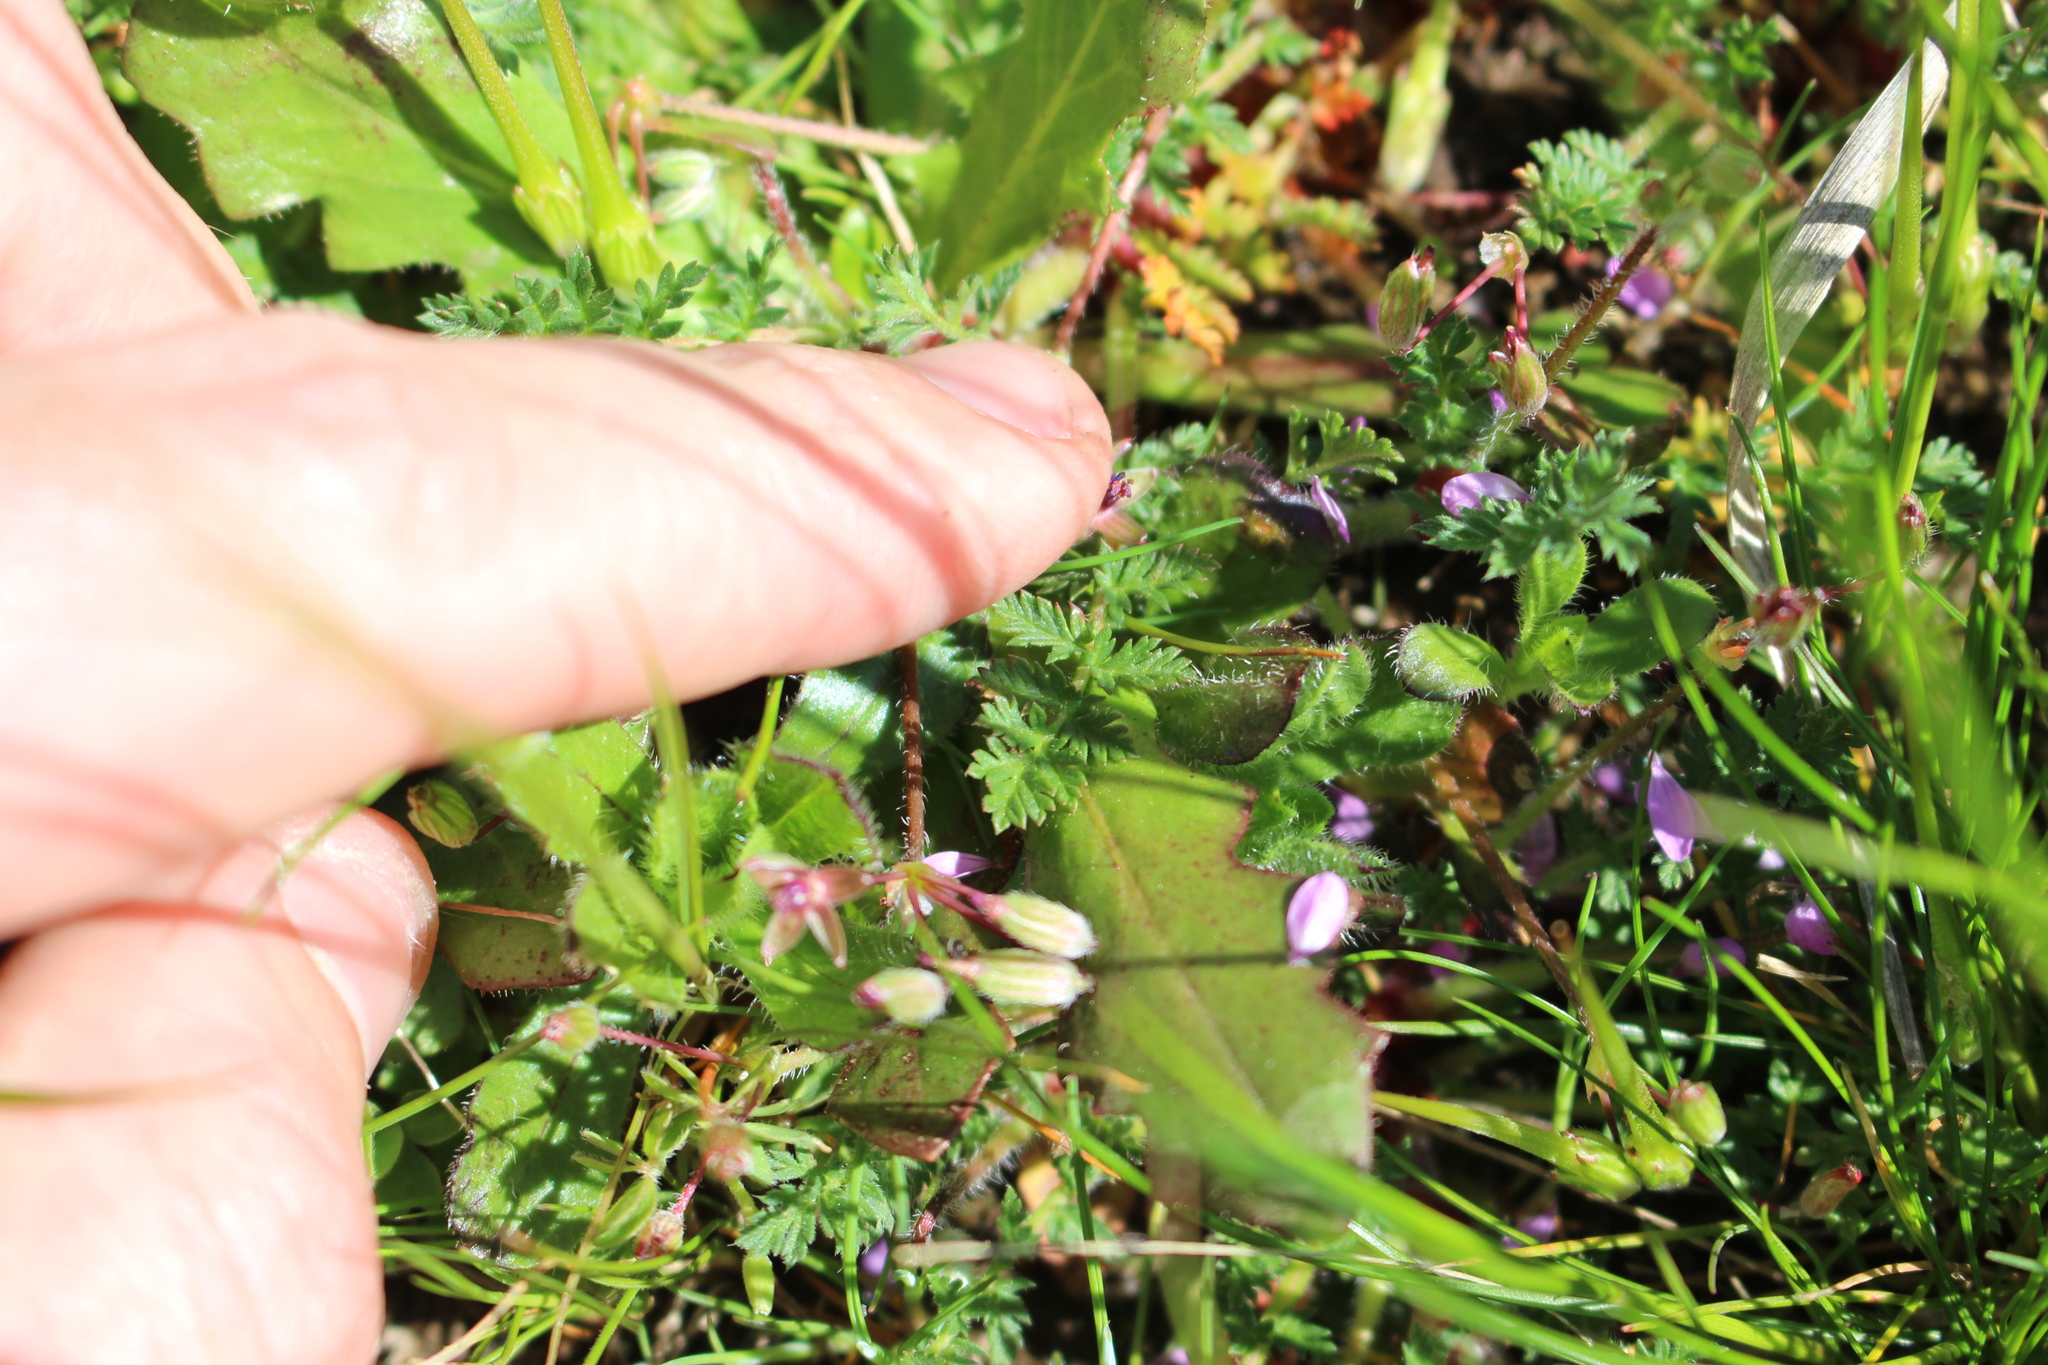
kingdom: Plantae
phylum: Tracheophyta
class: Magnoliopsida
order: Geraniales
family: Geraniaceae
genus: Erodium
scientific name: Erodium cicutarium
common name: Common stork's-bill
